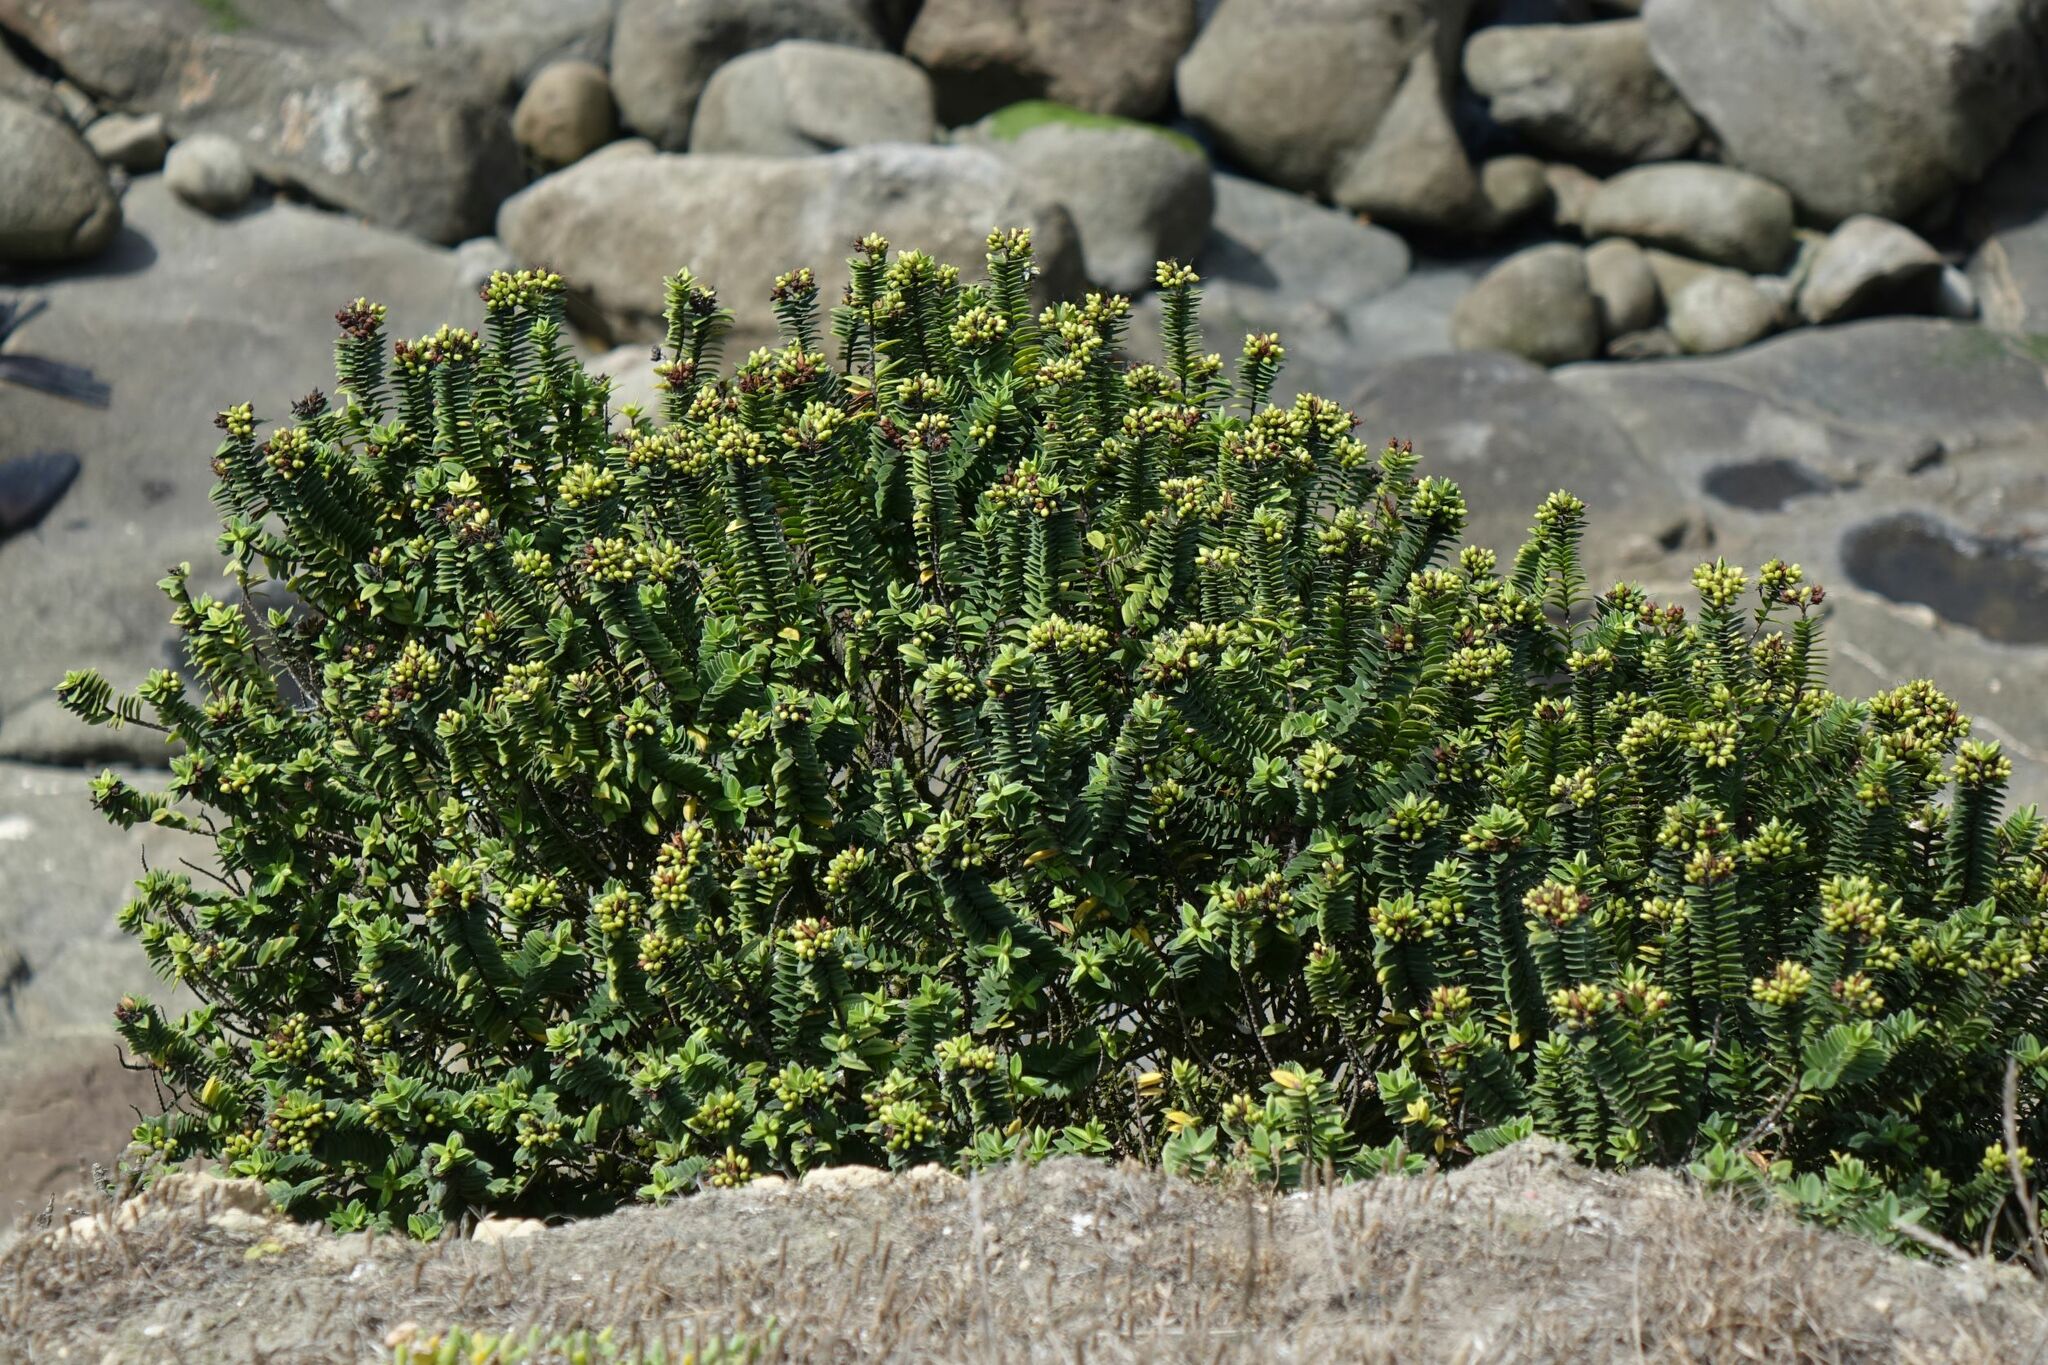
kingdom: Plantae
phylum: Tracheophyta
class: Magnoliopsida
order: Lamiales
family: Plantaginaceae
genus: Veronica
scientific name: Veronica elliptica
